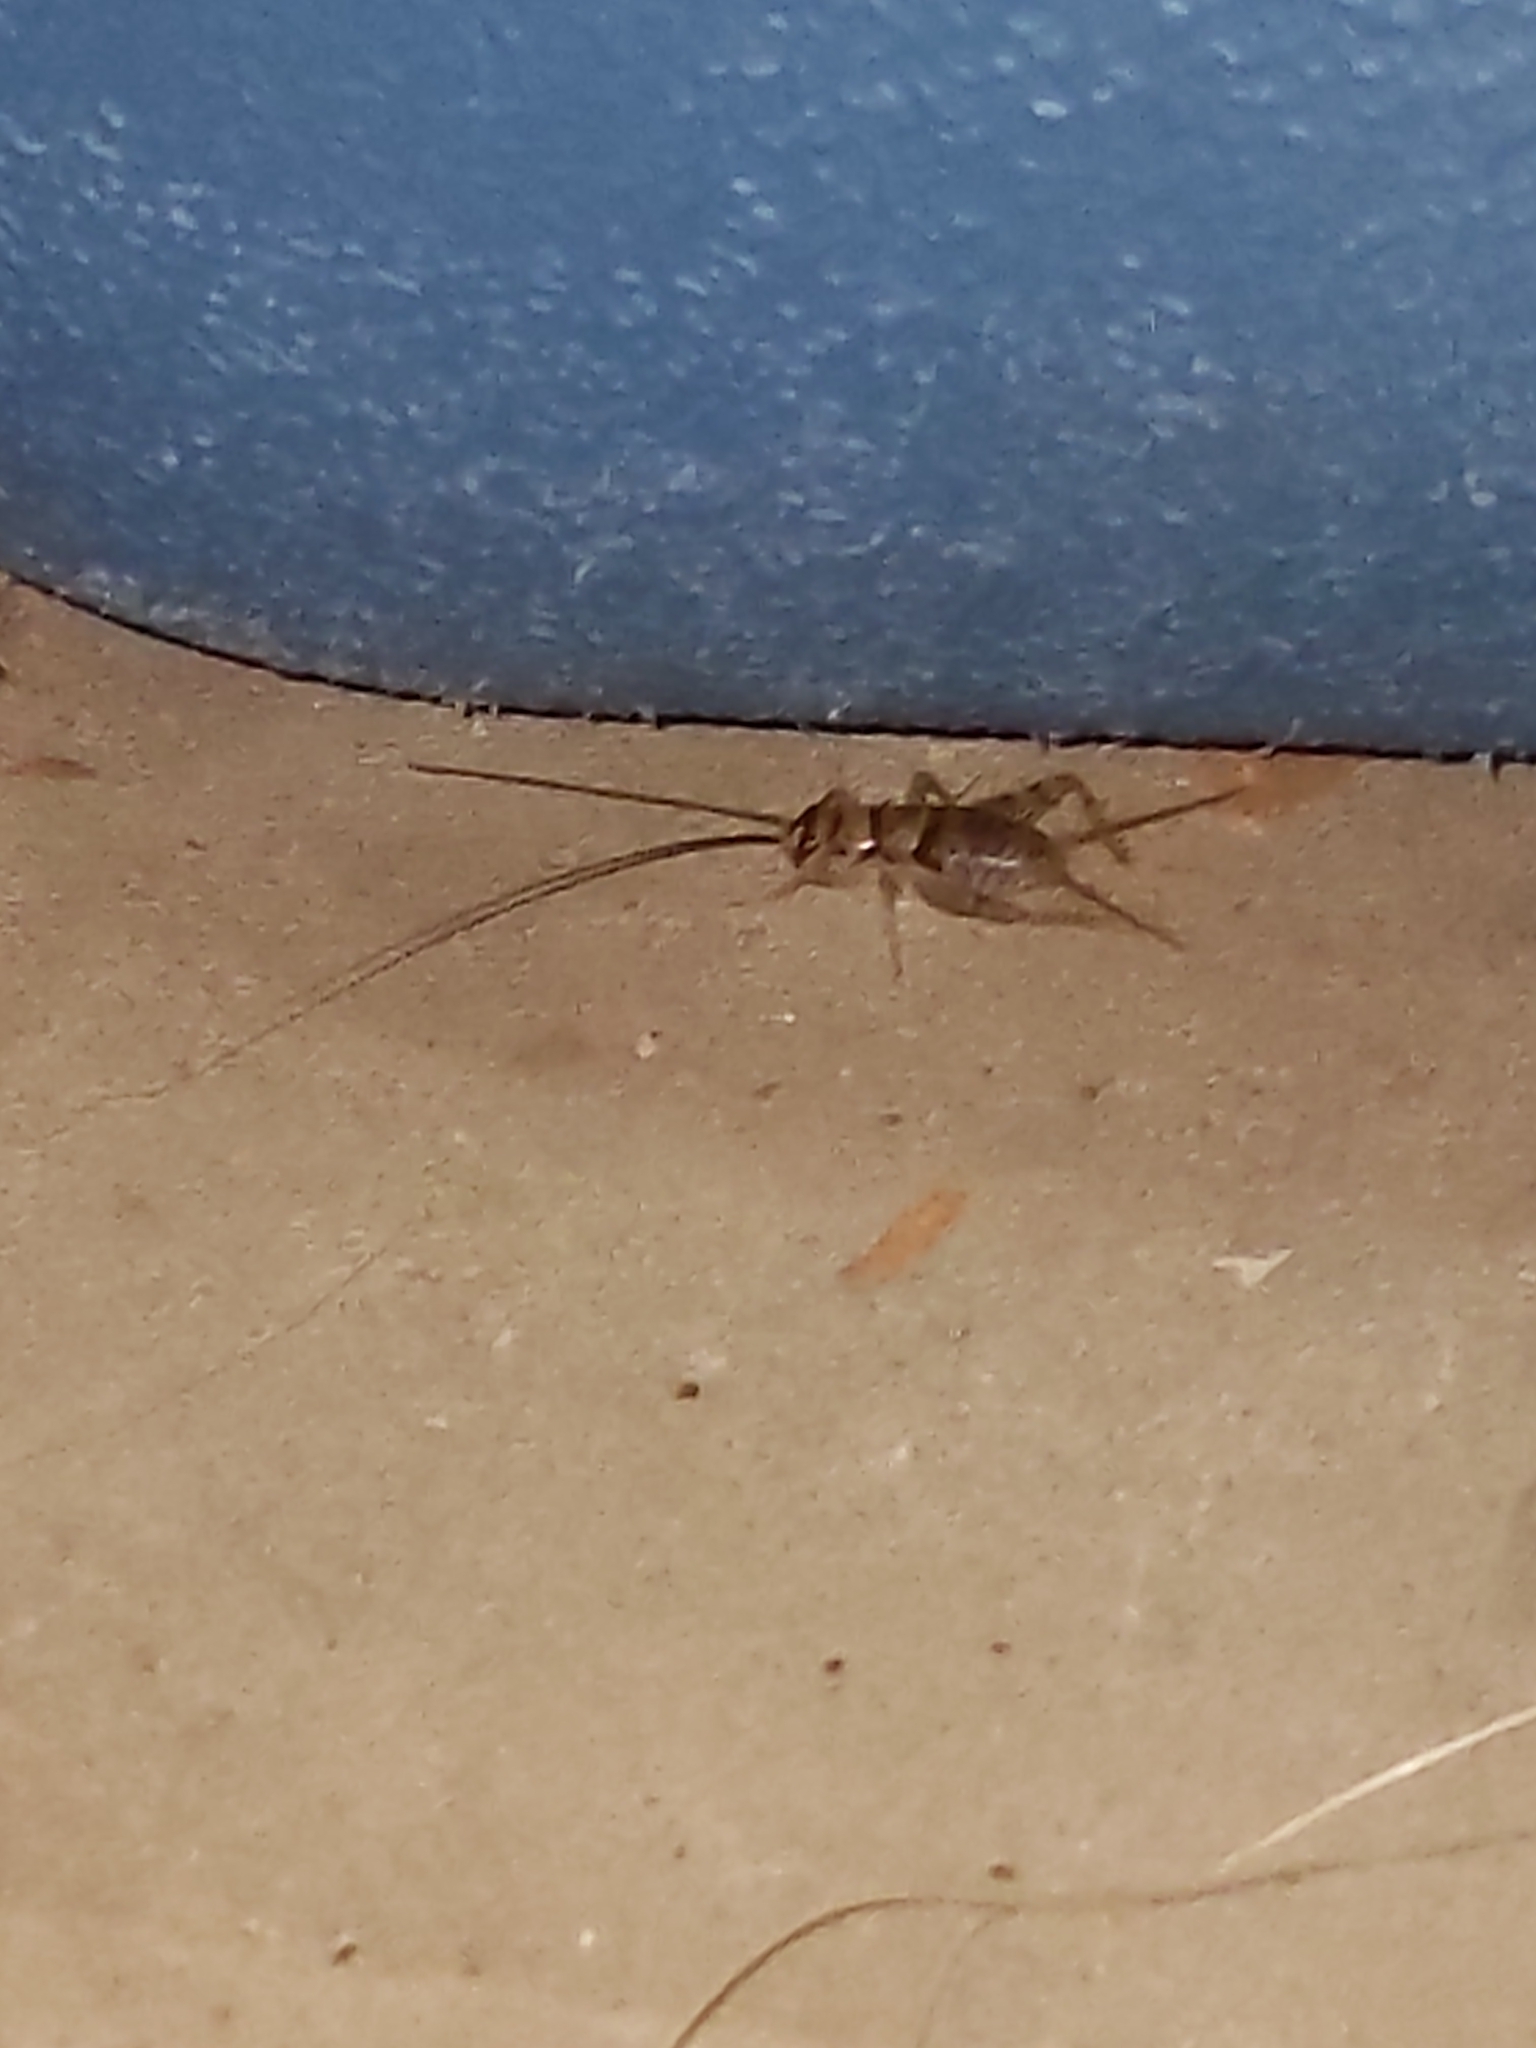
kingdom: Animalia
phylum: Arthropoda
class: Insecta
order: Orthoptera
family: Gryllidae
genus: Gryllodes
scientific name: Gryllodes sigillatus
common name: Tropical house cricket
